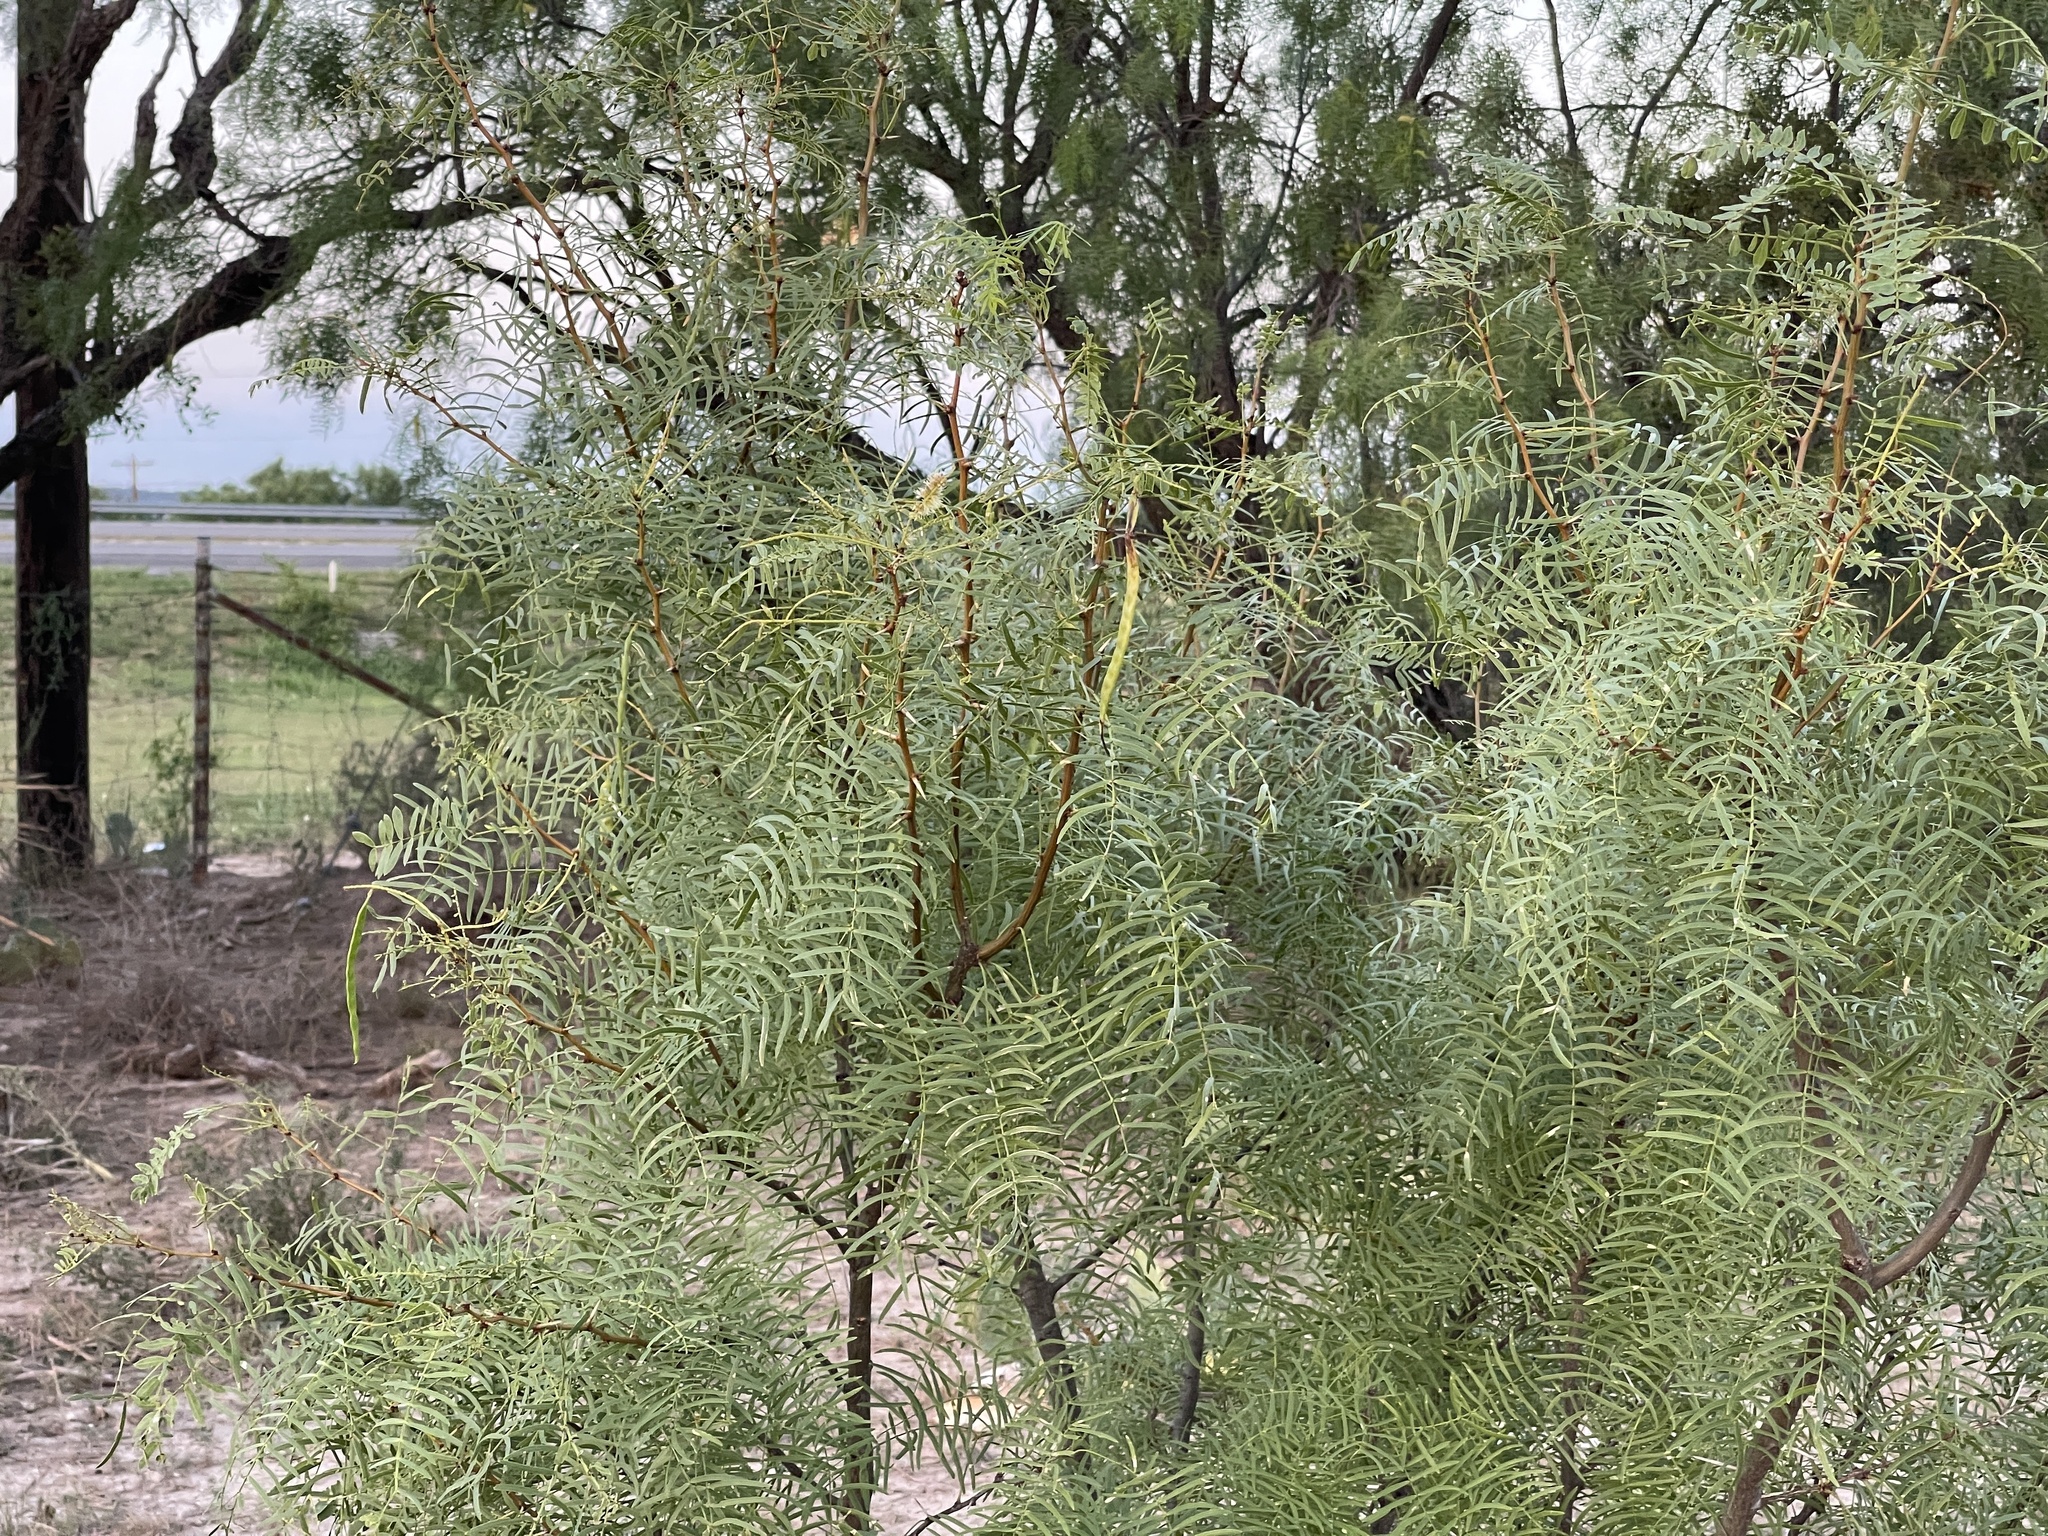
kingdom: Plantae
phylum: Tracheophyta
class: Magnoliopsida
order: Fabales
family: Fabaceae
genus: Prosopis
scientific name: Prosopis glandulosa
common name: Honey mesquite
